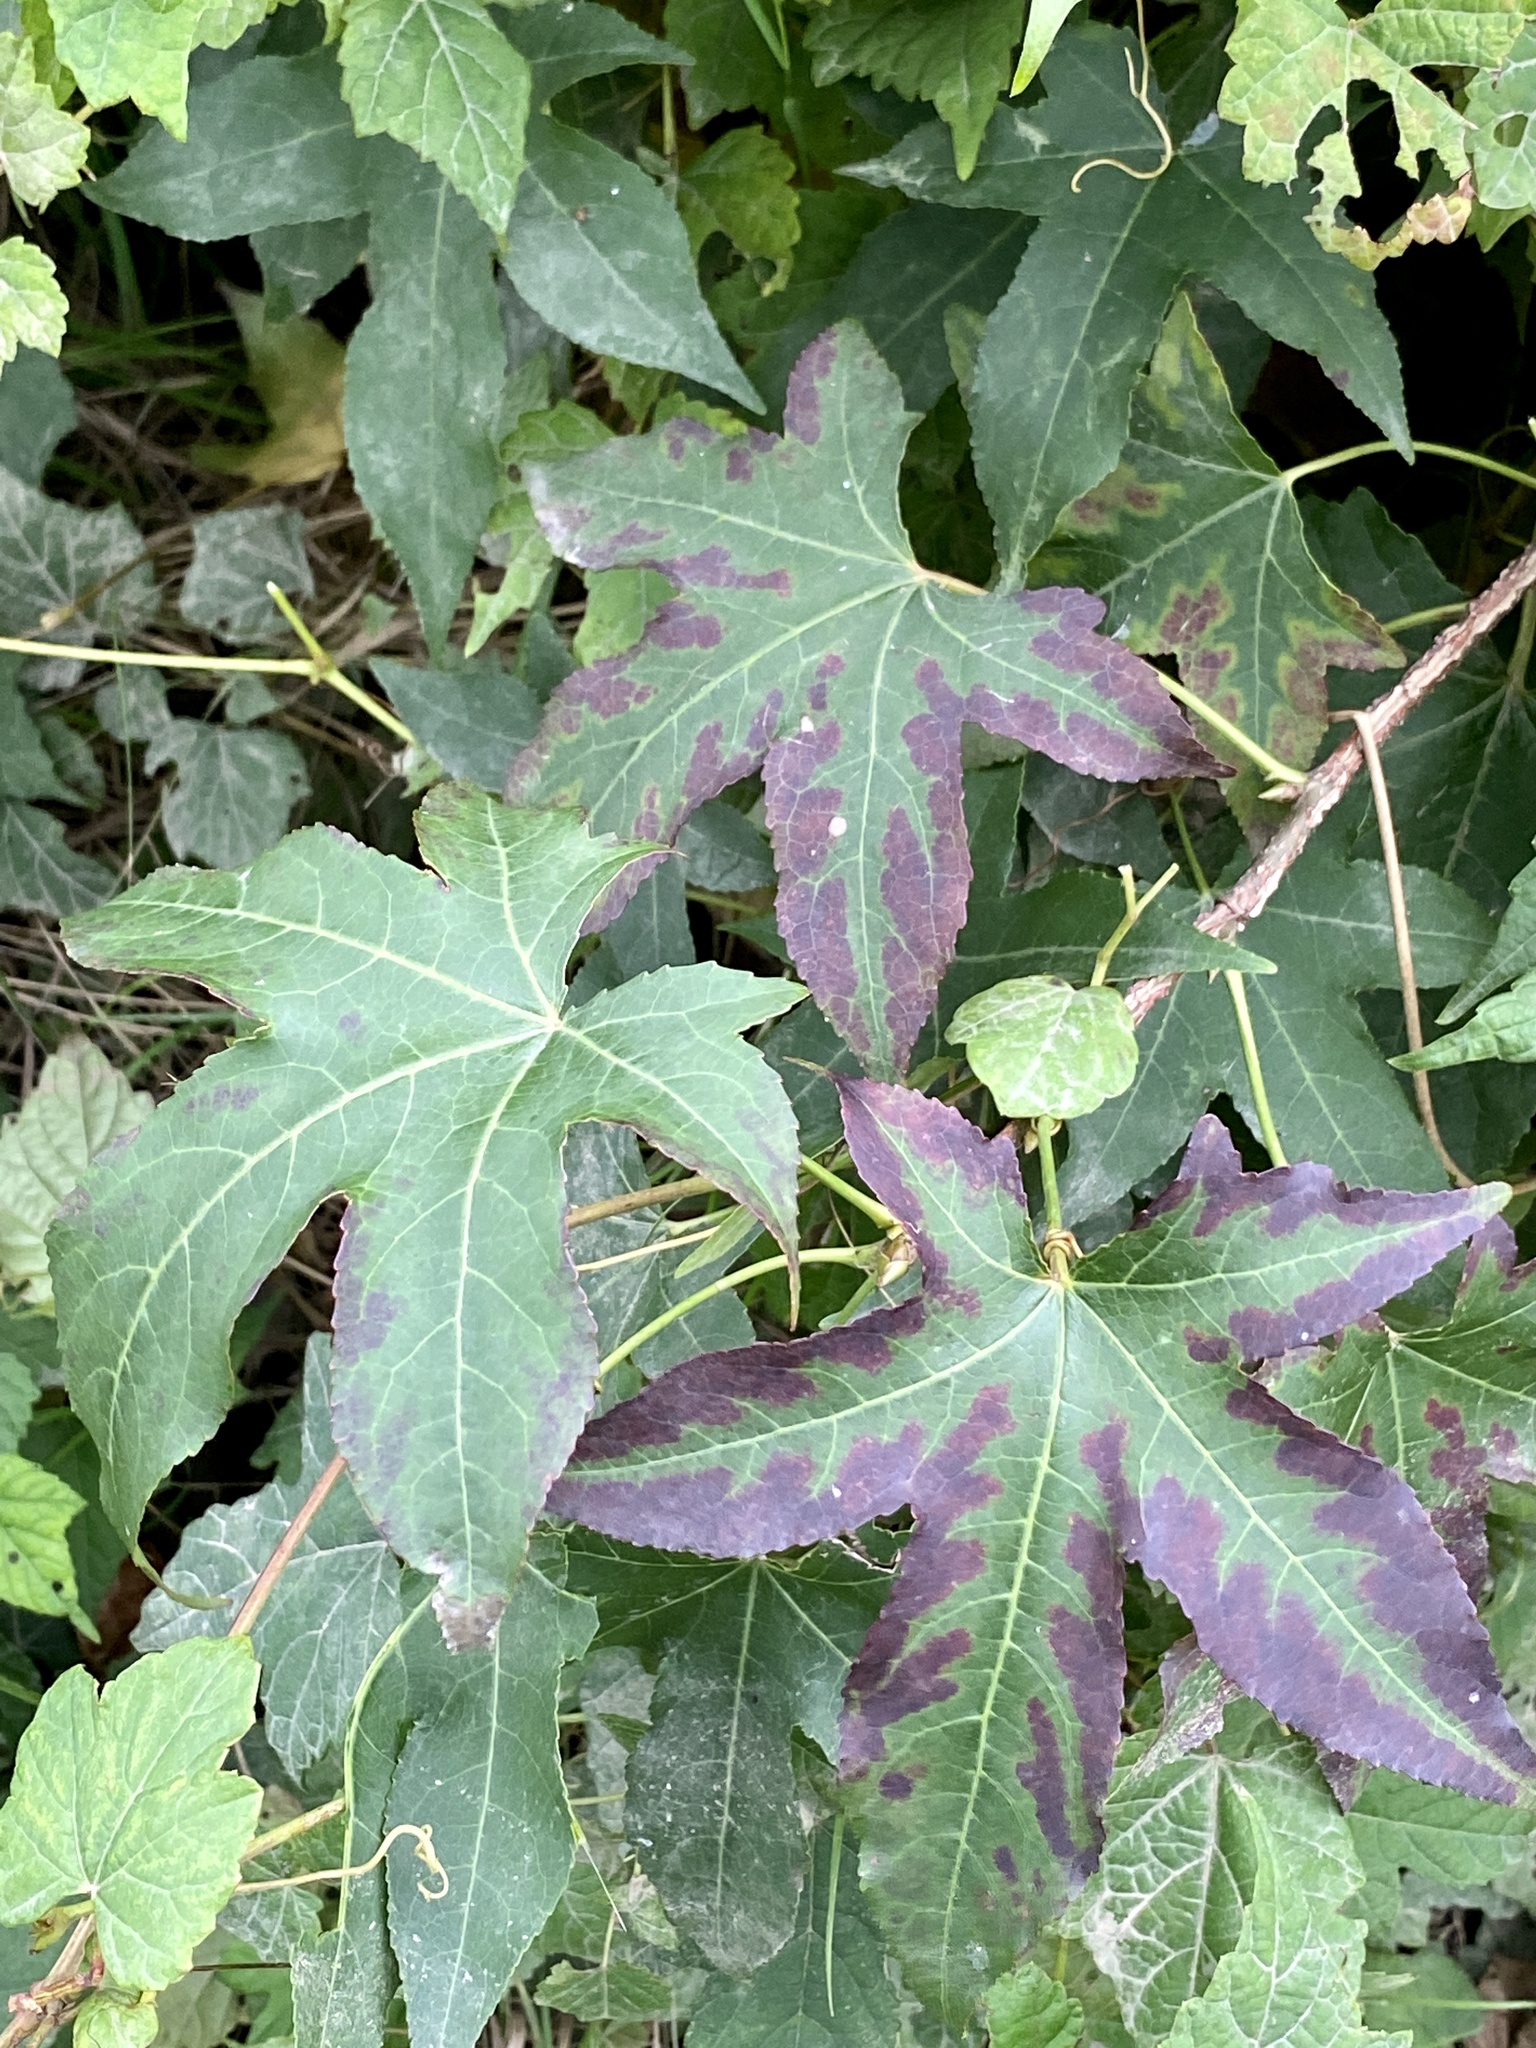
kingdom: Plantae
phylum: Tracheophyta
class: Magnoliopsida
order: Saxifragales
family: Altingiaceae
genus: Liquidambar
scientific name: Liquidambar styraciflua
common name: Sweet gum
